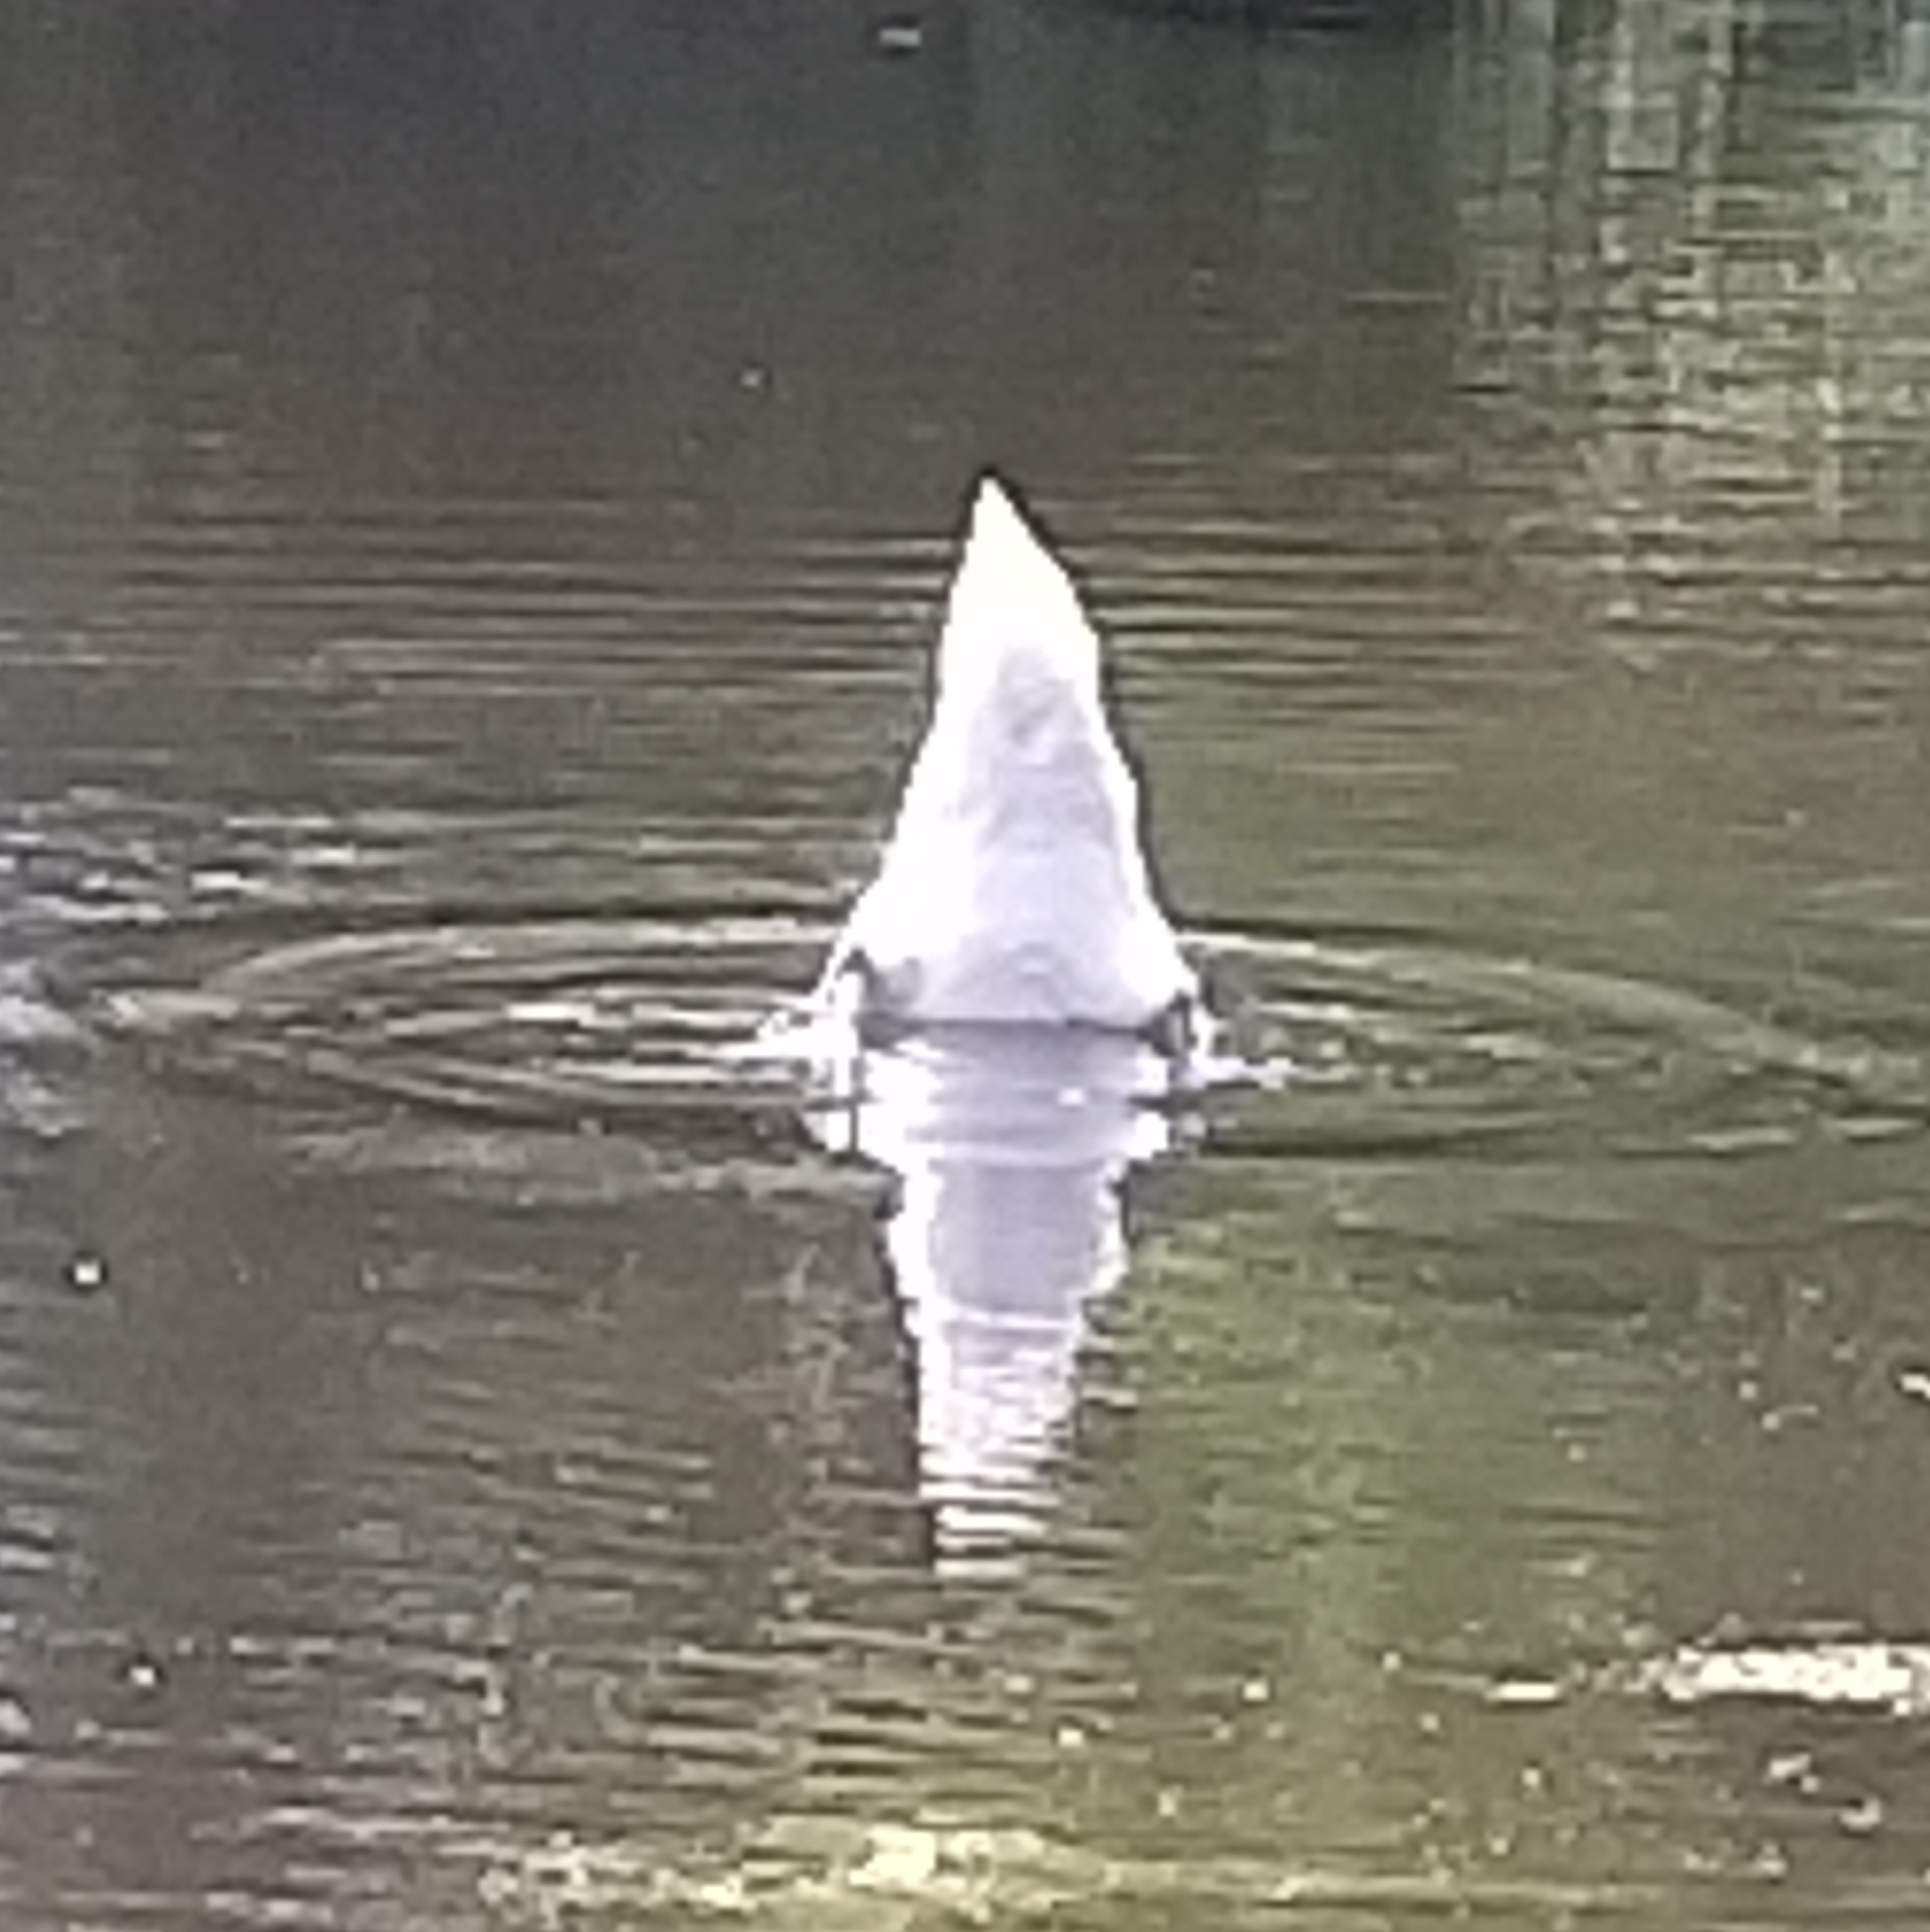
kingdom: Animalia
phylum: Chordata
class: Aves
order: Anseriformes
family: Anatidae
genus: Cygnus
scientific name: Cygnus olor
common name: Mute swan
